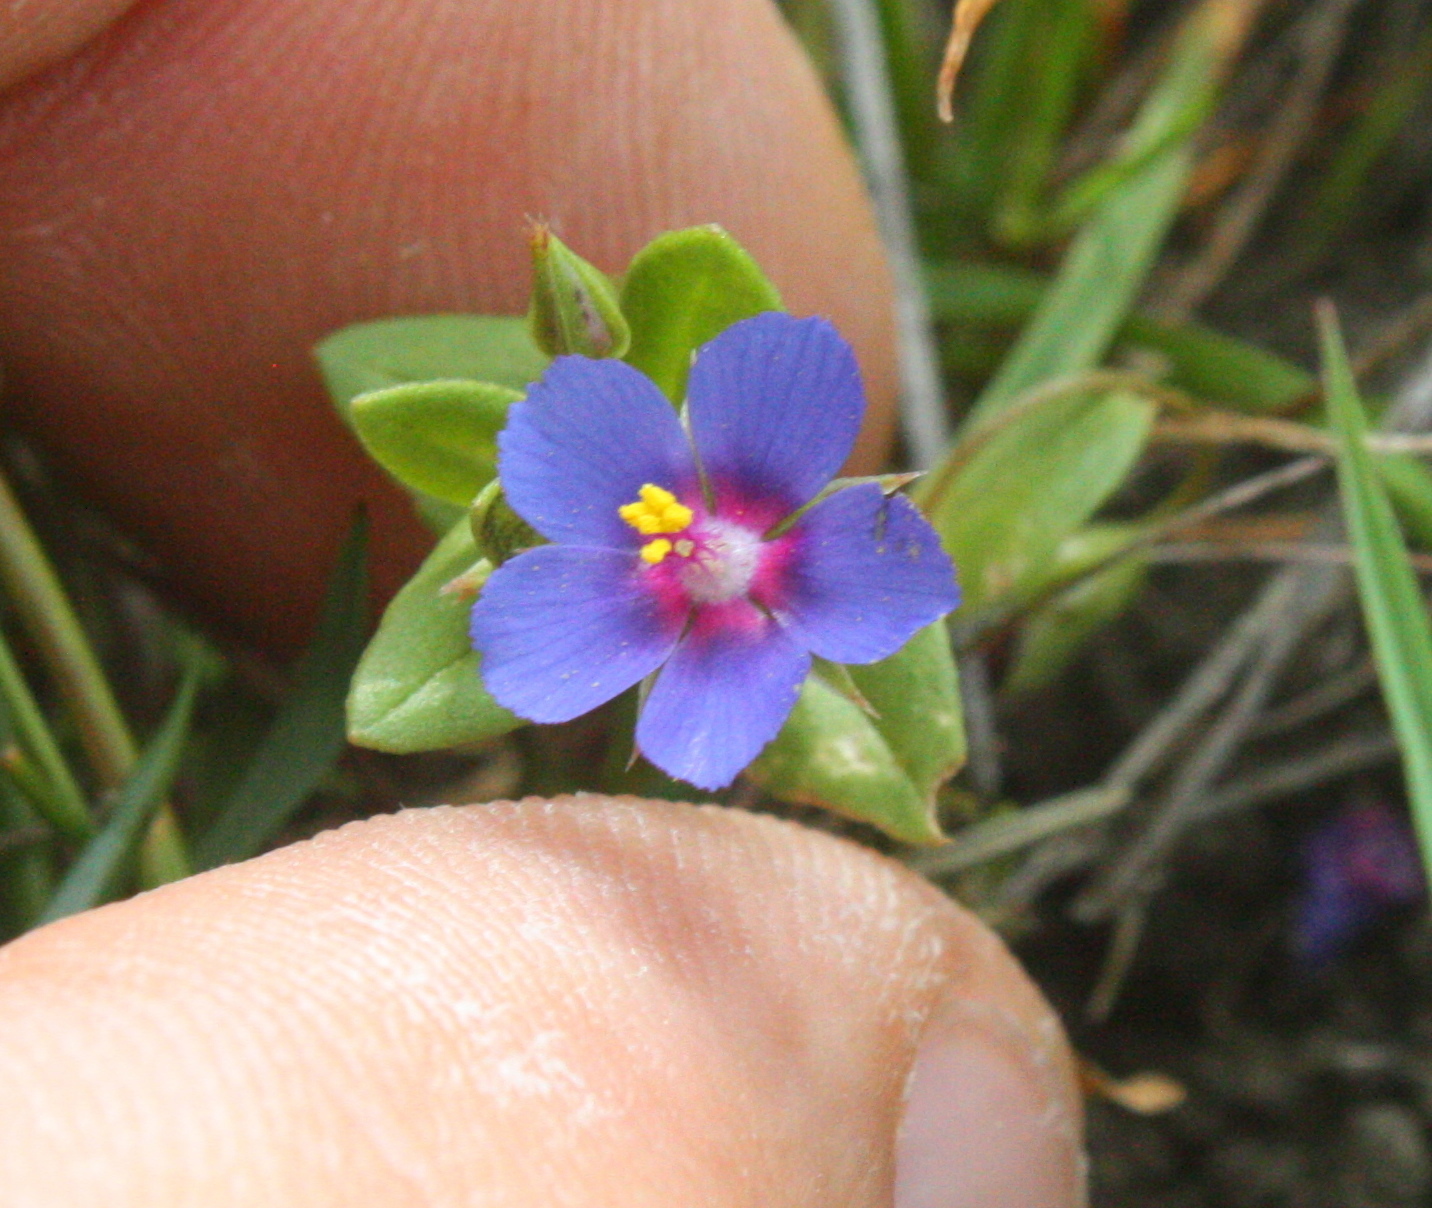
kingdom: Plantae
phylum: Tracheophyta
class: Magnoliopsida
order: Ericales
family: Primulaceae
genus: Lysimachia
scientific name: Lysimachia arvensis
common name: Scarlet pimpernel
